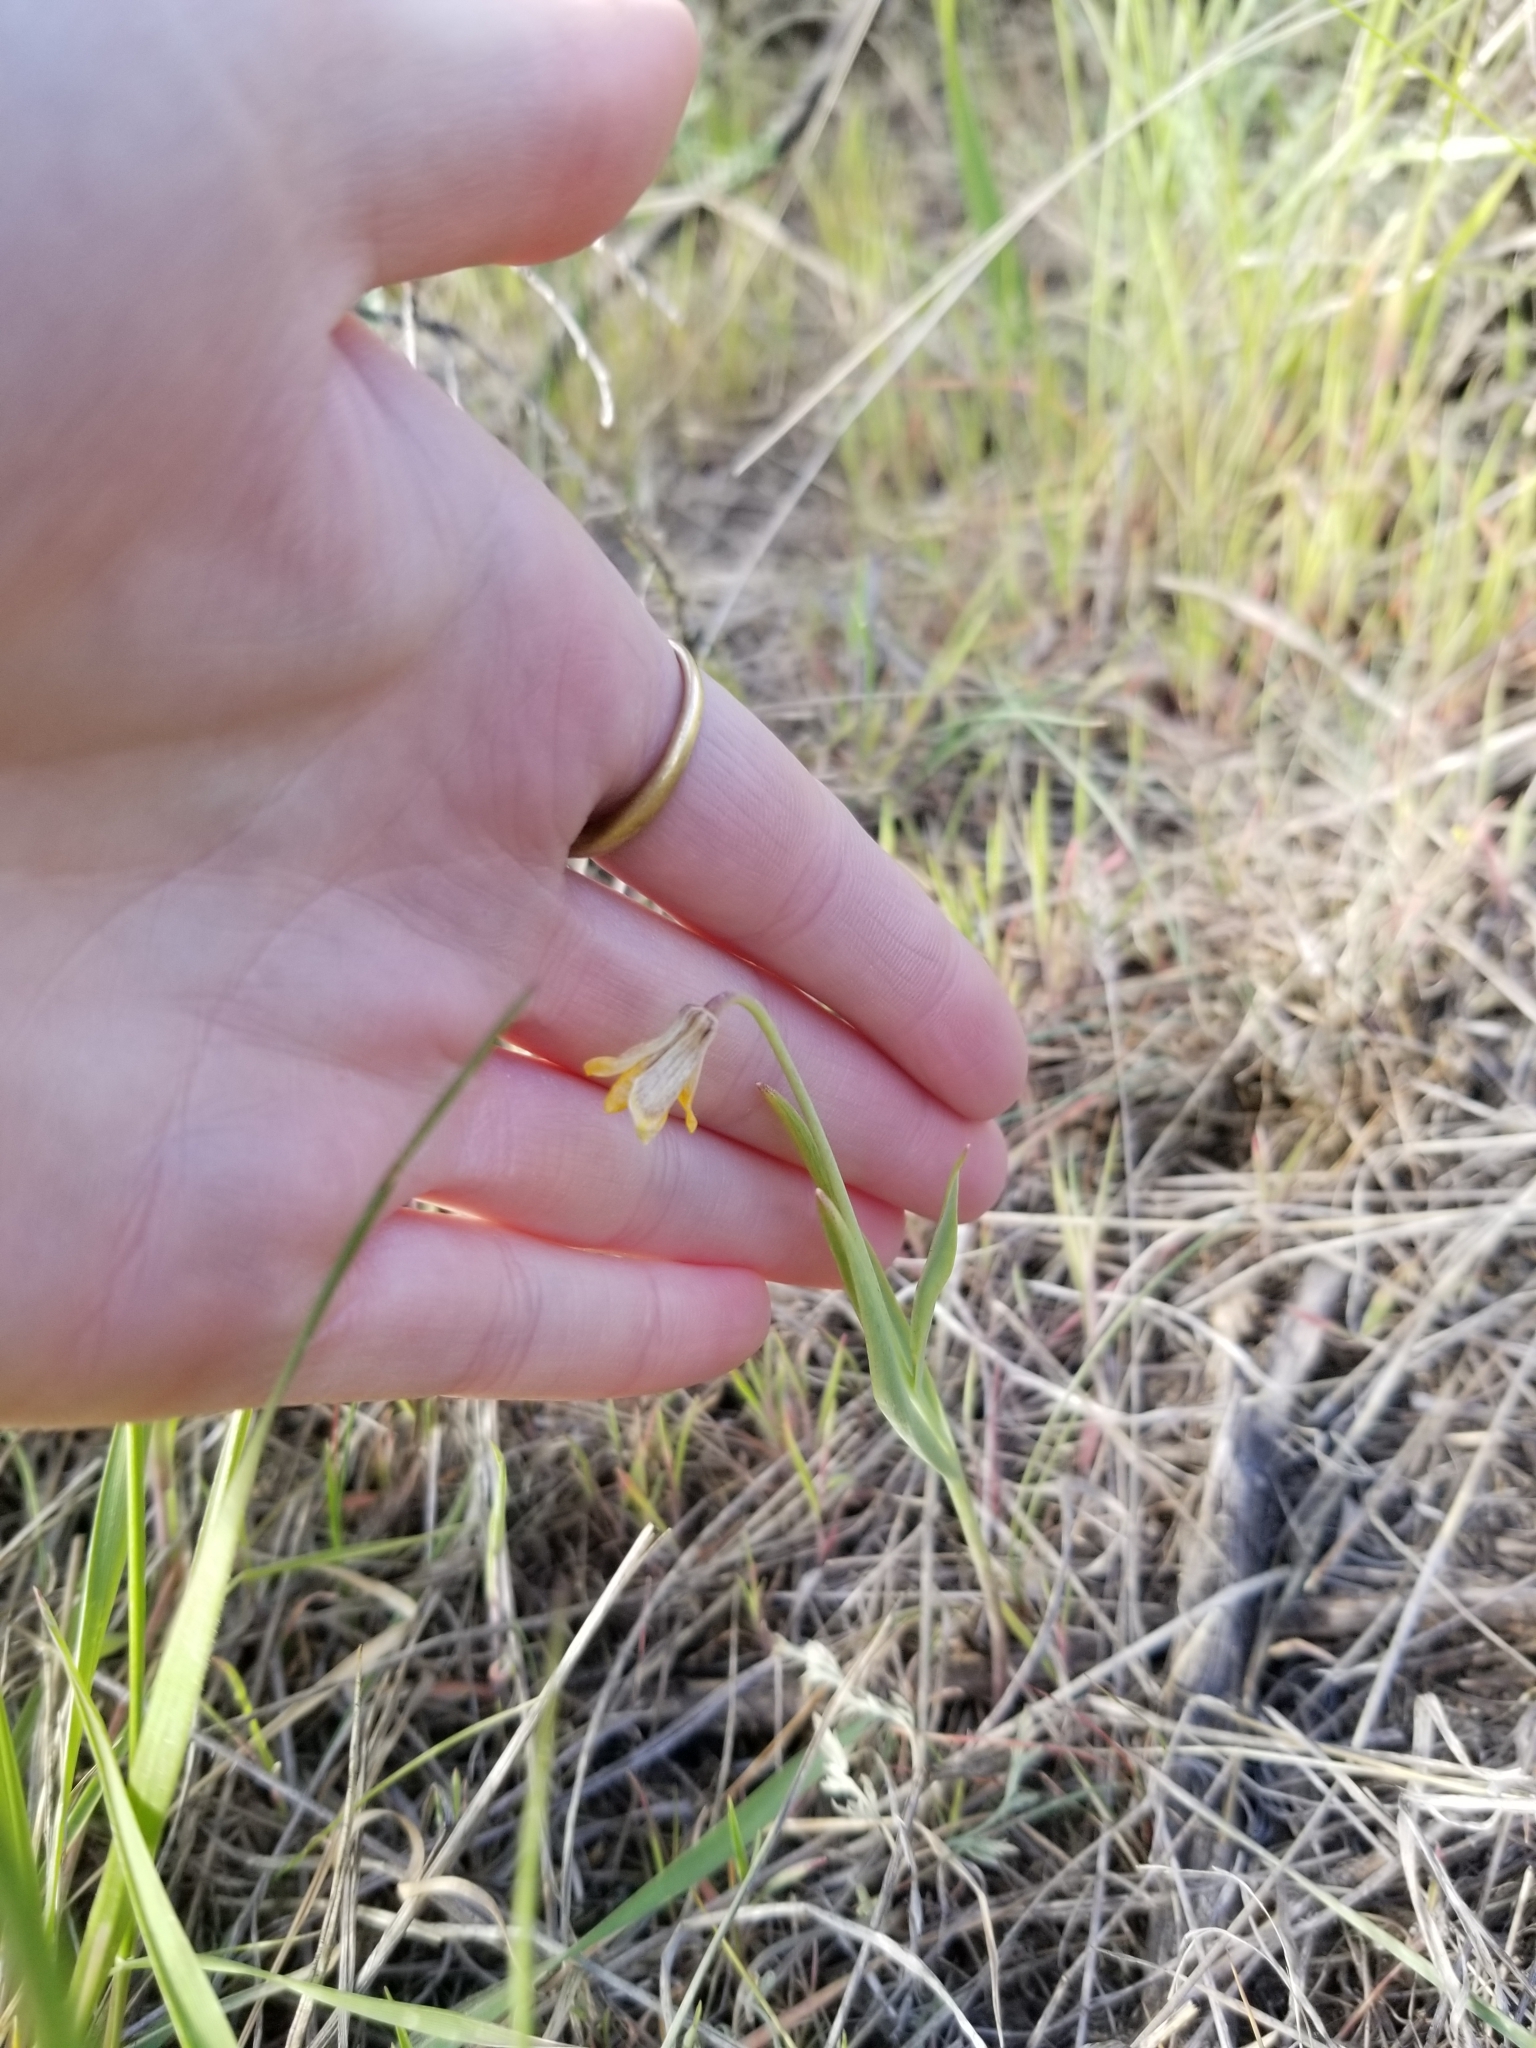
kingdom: Plantae
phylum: Tracheophyta
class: Liliopsida
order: Liliales
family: Liliaceae
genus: Fritillaria
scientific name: Fritillaria pudica
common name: Yellow fritillary
